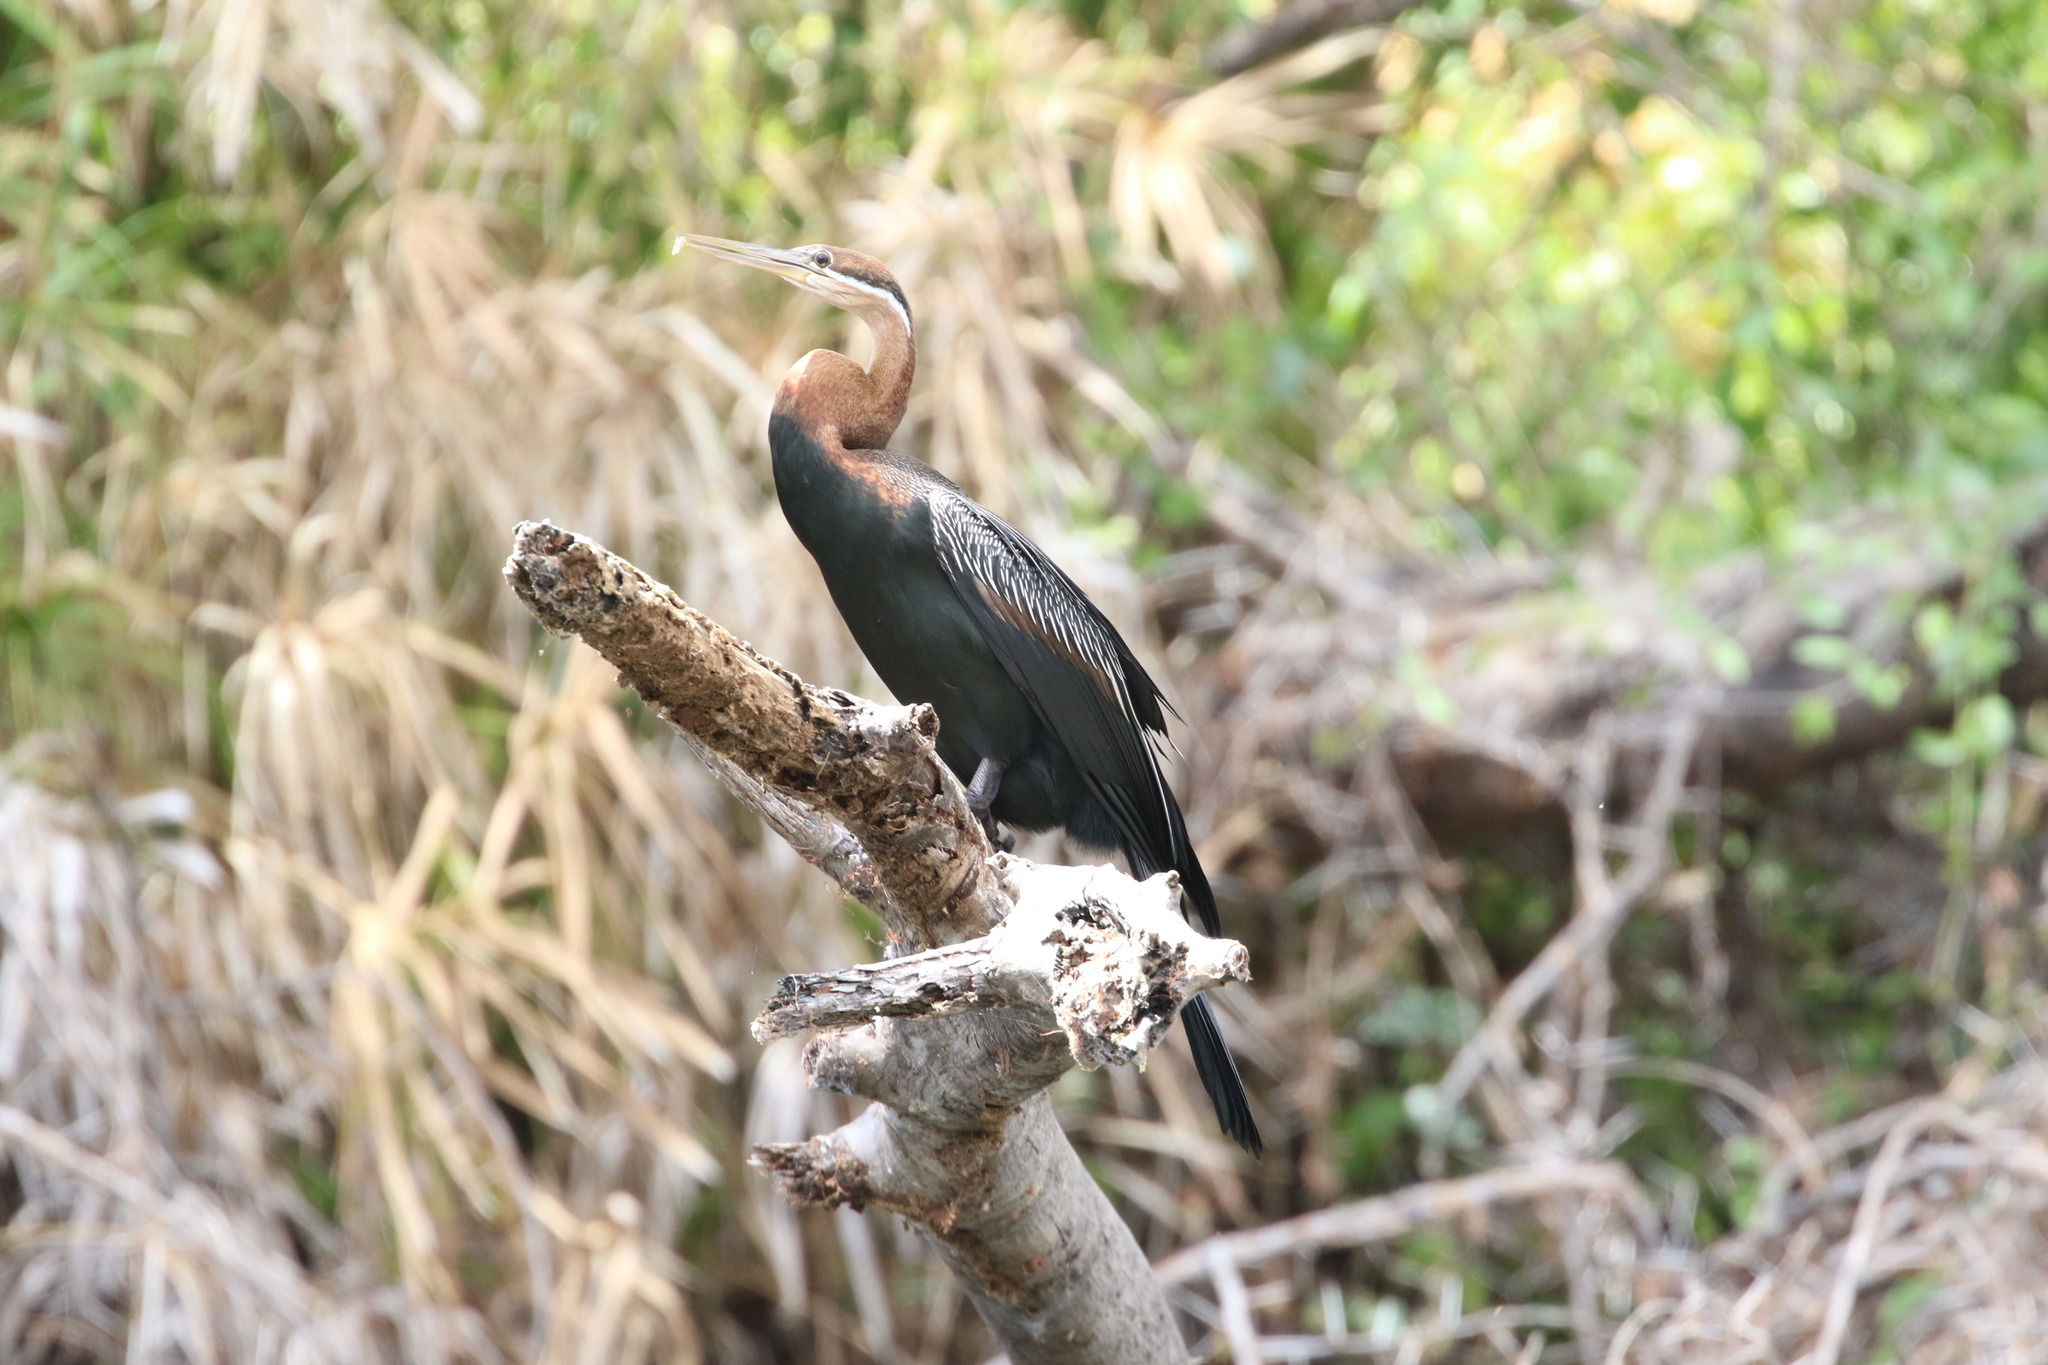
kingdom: Animalia
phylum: Chordata
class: Aves
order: Suliformes
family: Anhingidae
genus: Anhinga
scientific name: Anhinga rufa
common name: African darter
